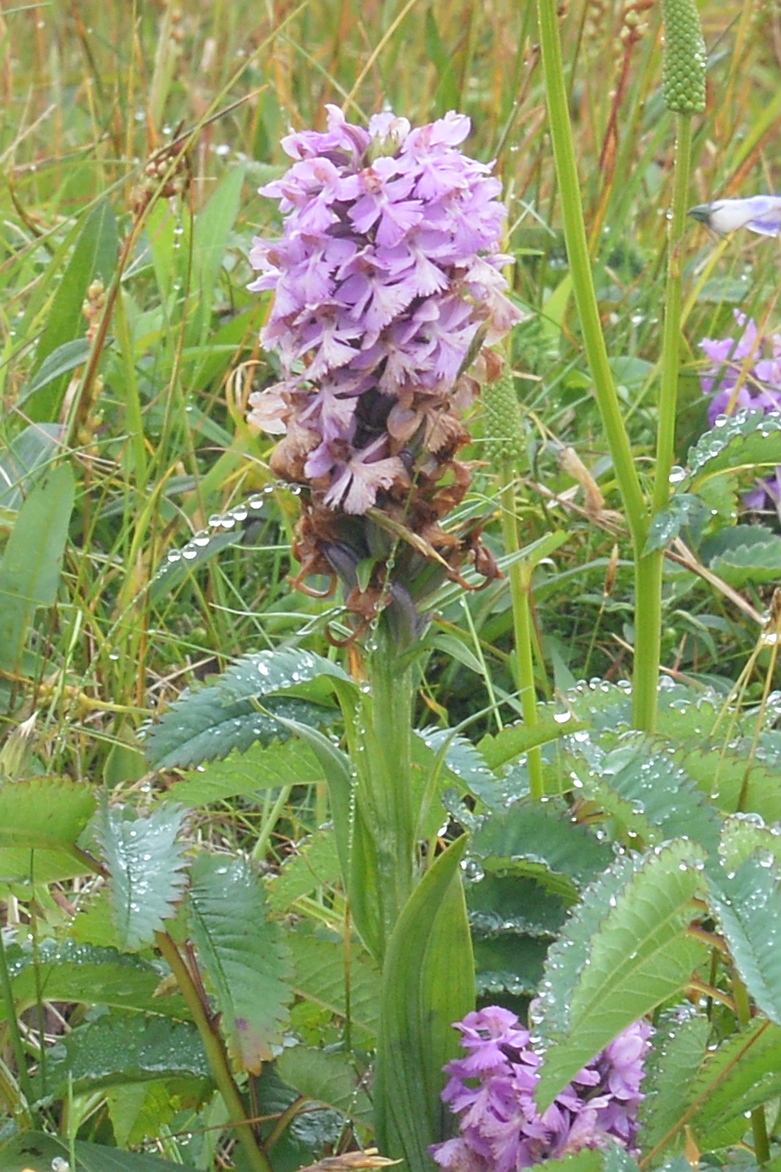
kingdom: Plantae
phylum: Tracheophyta
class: Liliopsida
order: Asparagales
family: Orchidaceae
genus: Platanthera
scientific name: Platanthera psycodes
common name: Lesser purple fringed orchid
